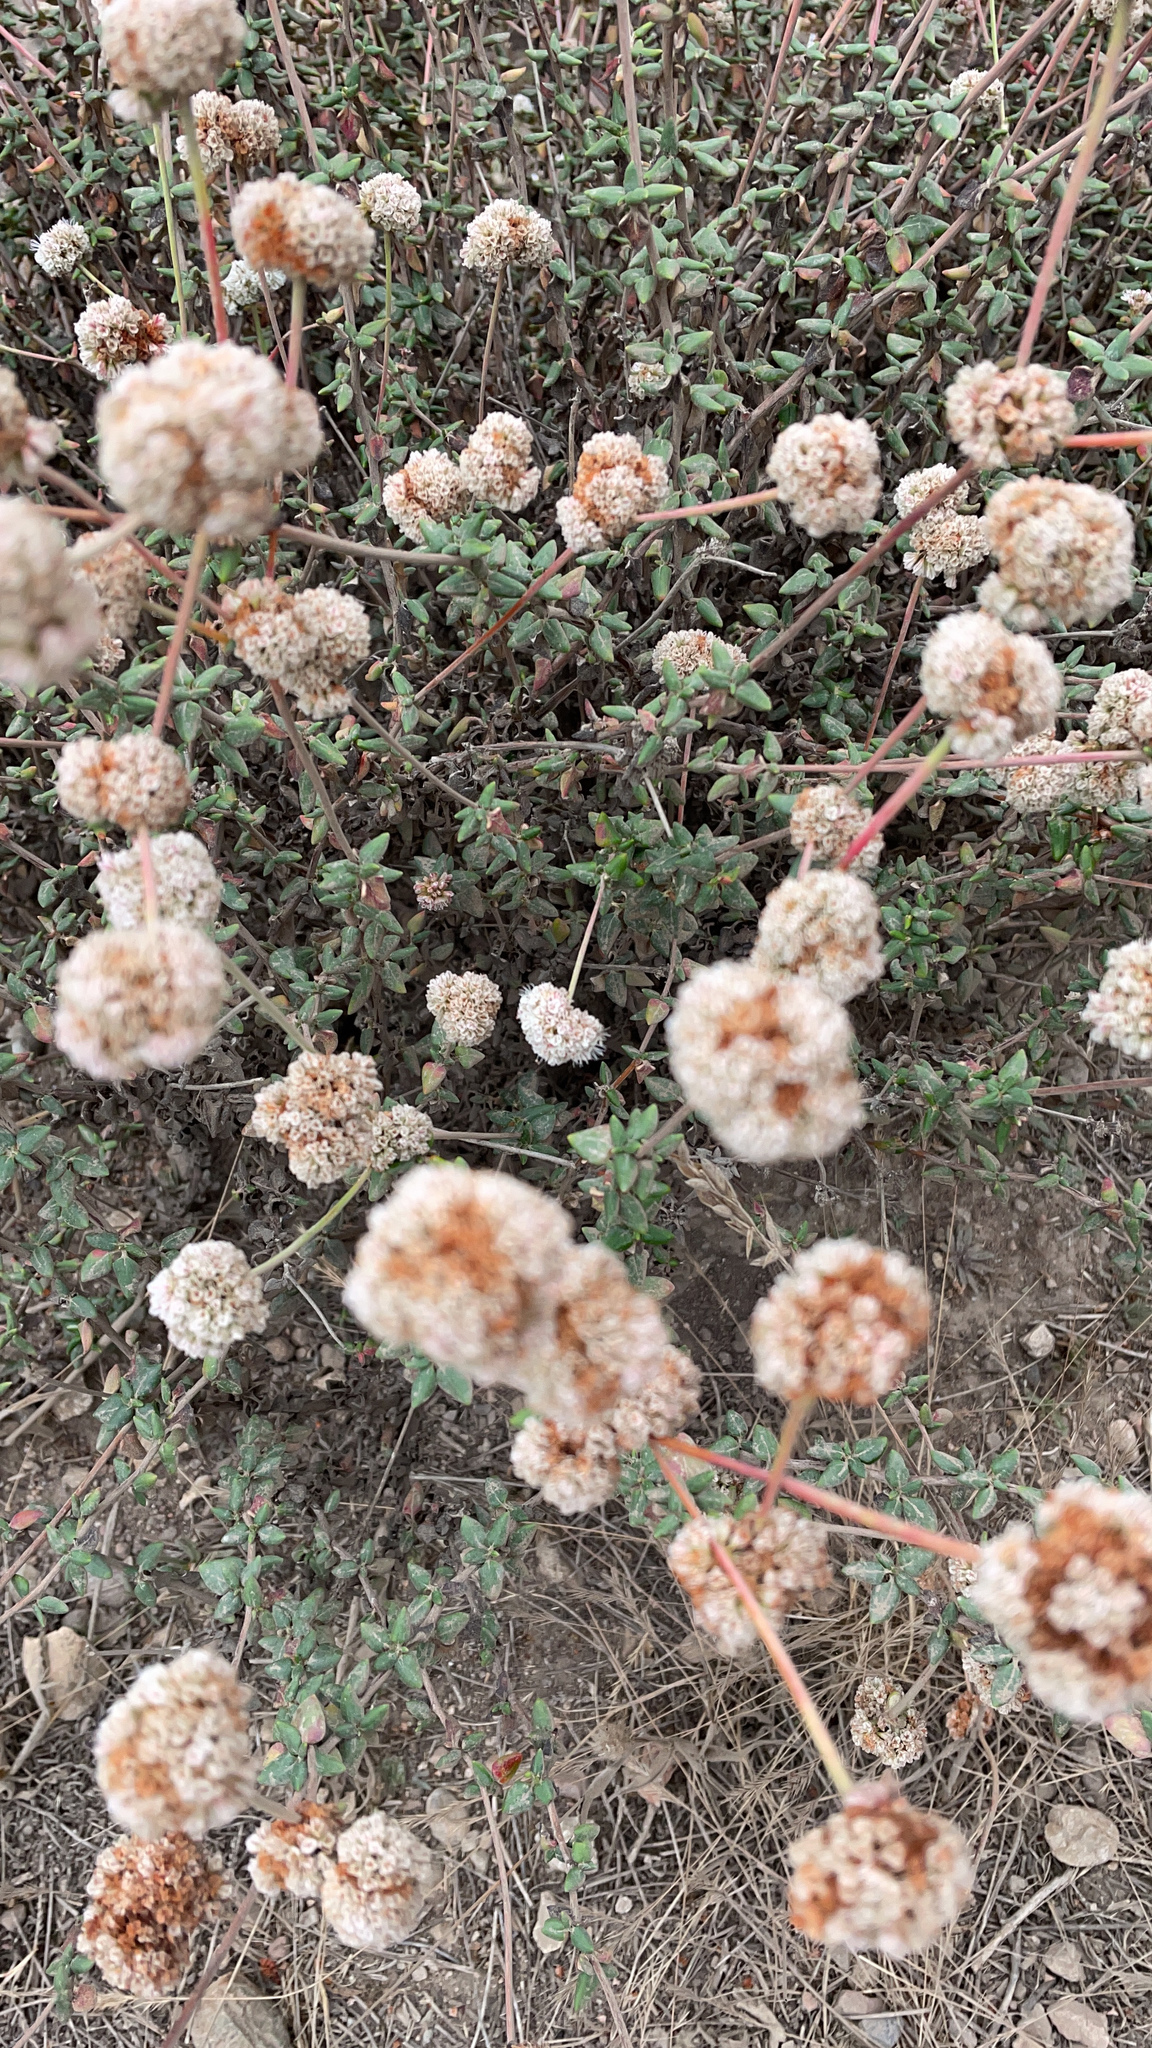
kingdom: Plantae
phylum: Tracheophyta
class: Magnoliopsida
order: Caryophyllales
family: Polygonaceae
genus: Eriogonum
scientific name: Eriogonum parvifolium
